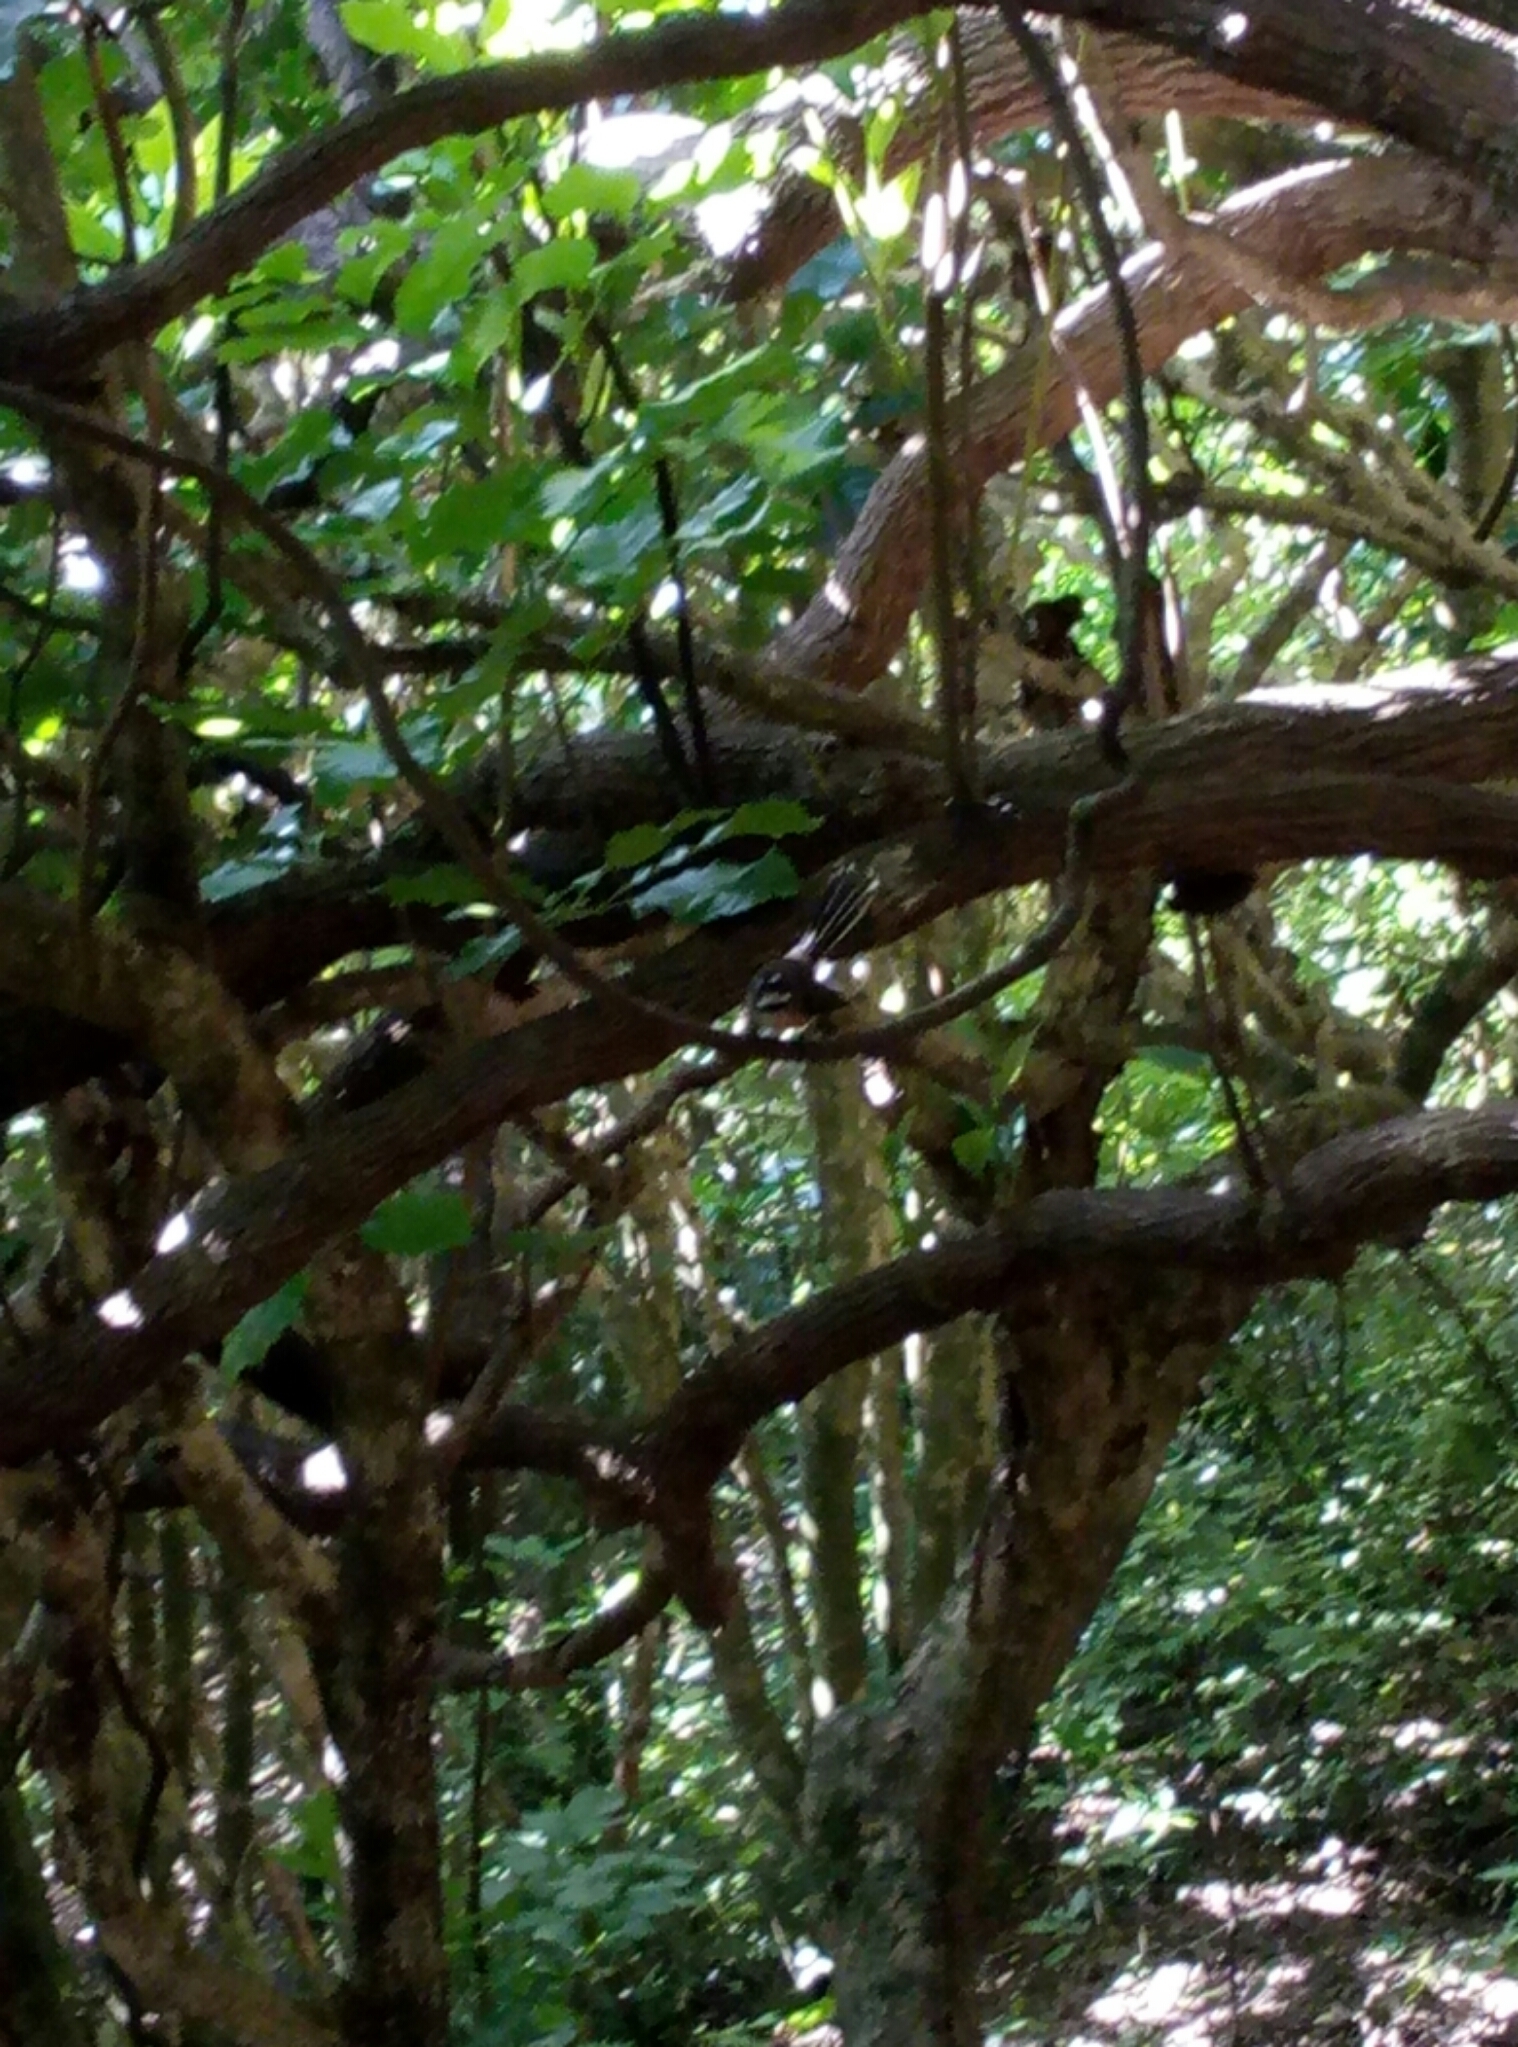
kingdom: Animalia
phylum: Chordata
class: Aves
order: Passeriformes
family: Rhipiduridae
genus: Rhipidura
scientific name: Rhipidura fuliginosa
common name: New zealand fantail
